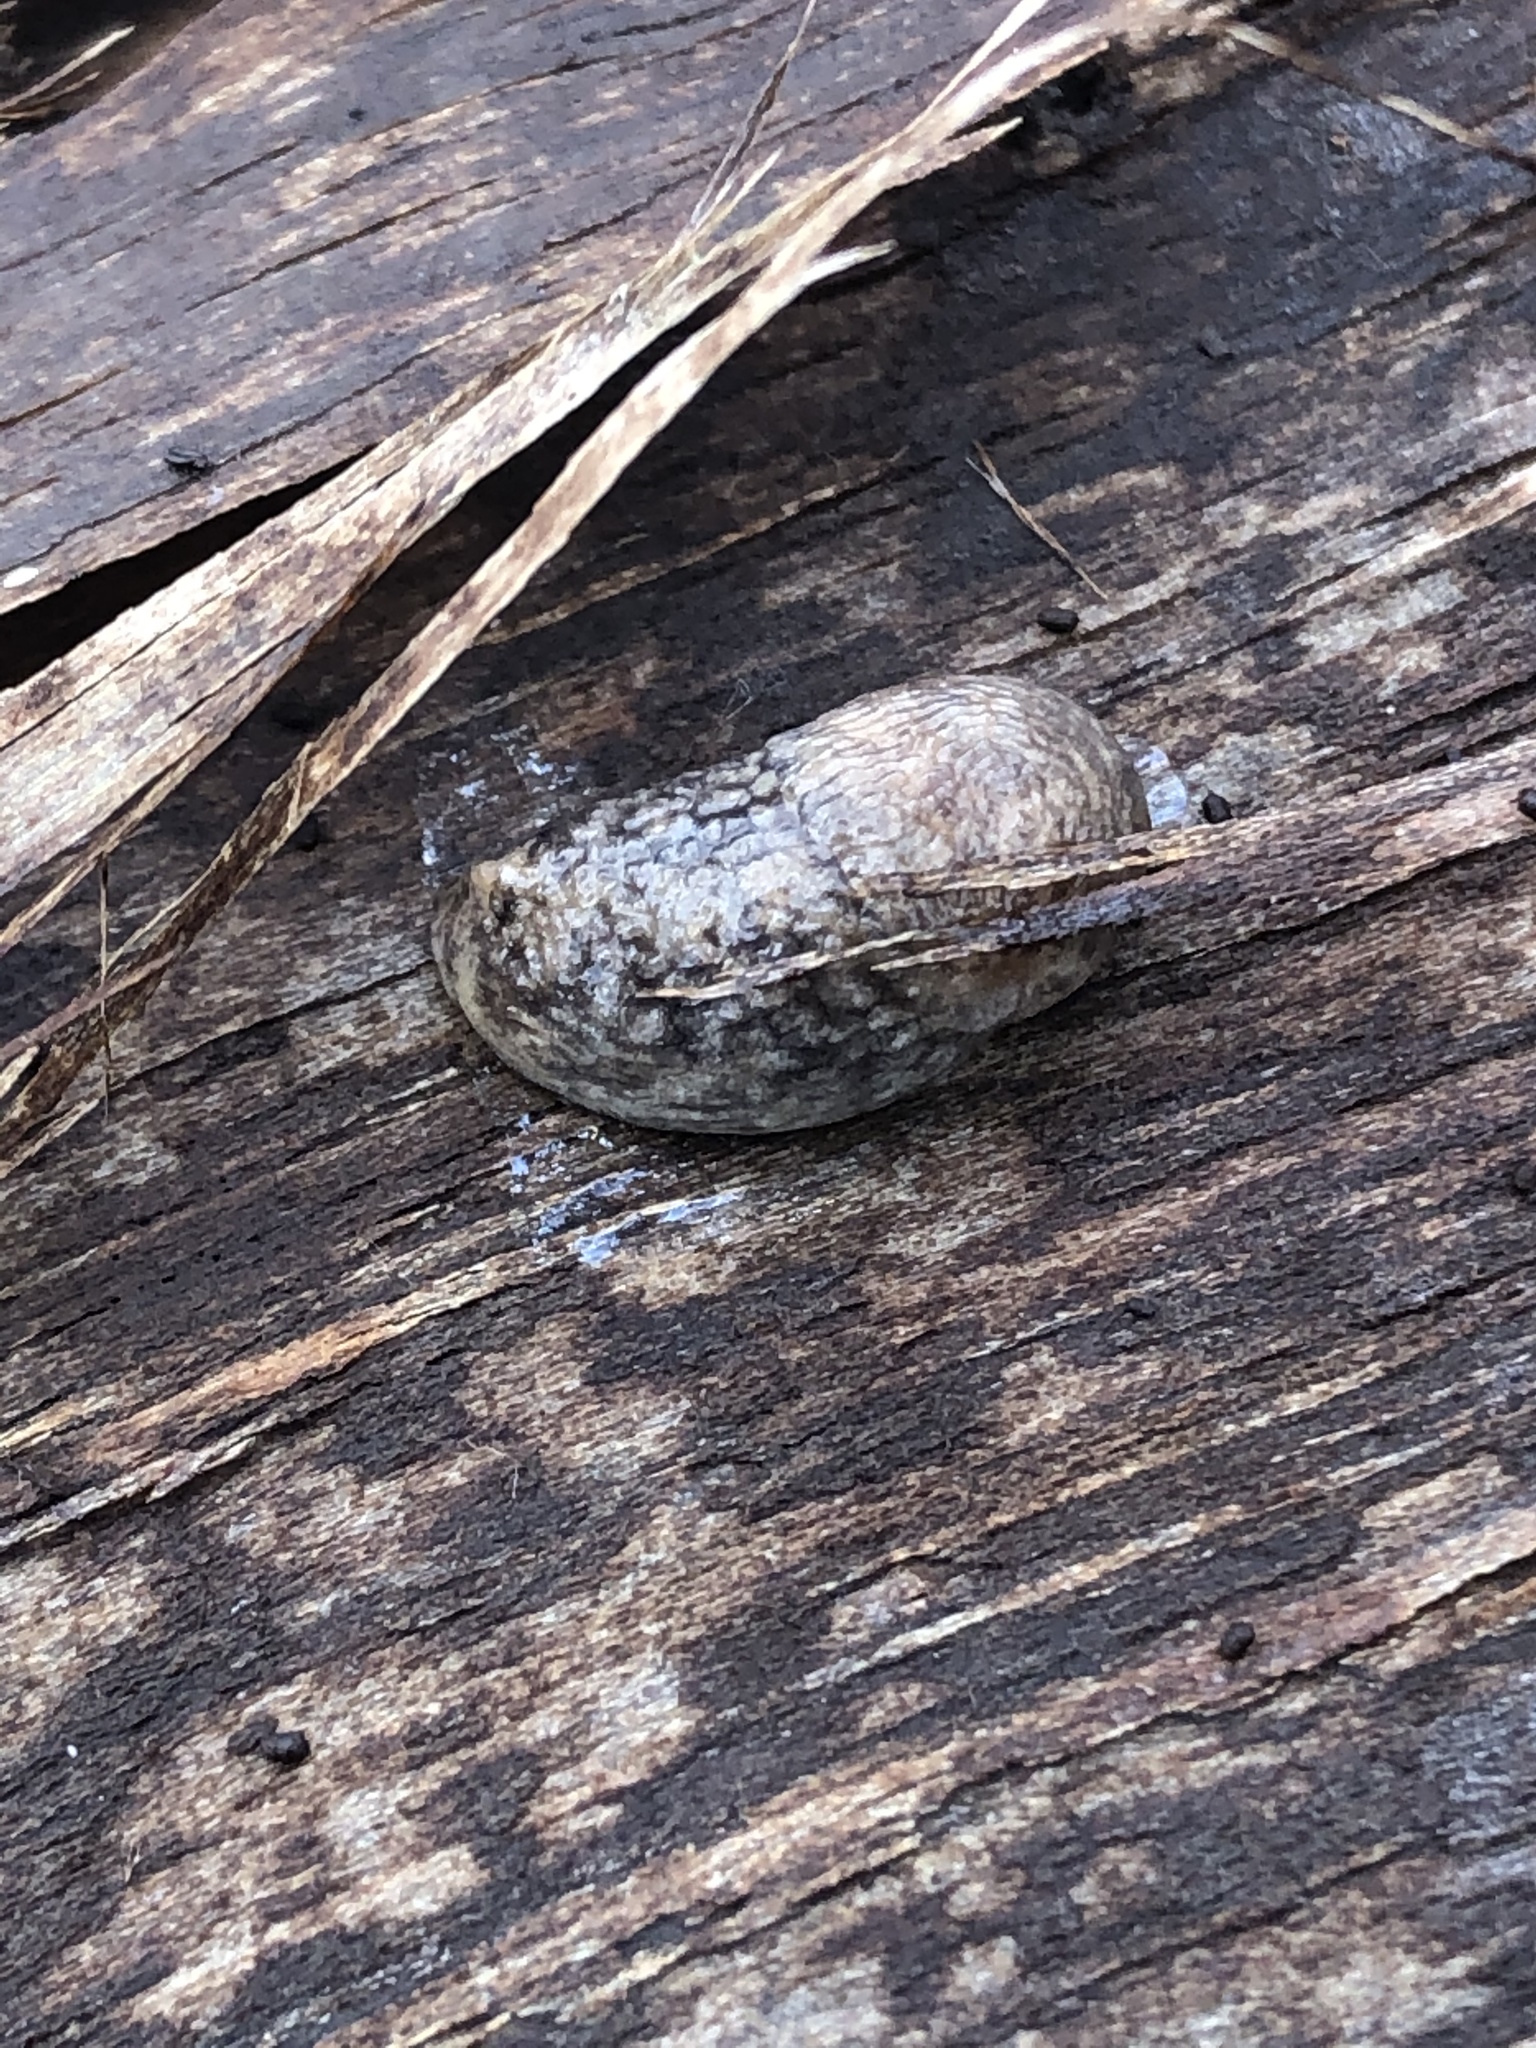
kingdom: Animalia
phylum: Mollusca
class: Gastropoda
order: Stylommatophora
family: Agriolimacidae
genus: Deroceras
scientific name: Deroceras reticulatum
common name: Gray field slug
